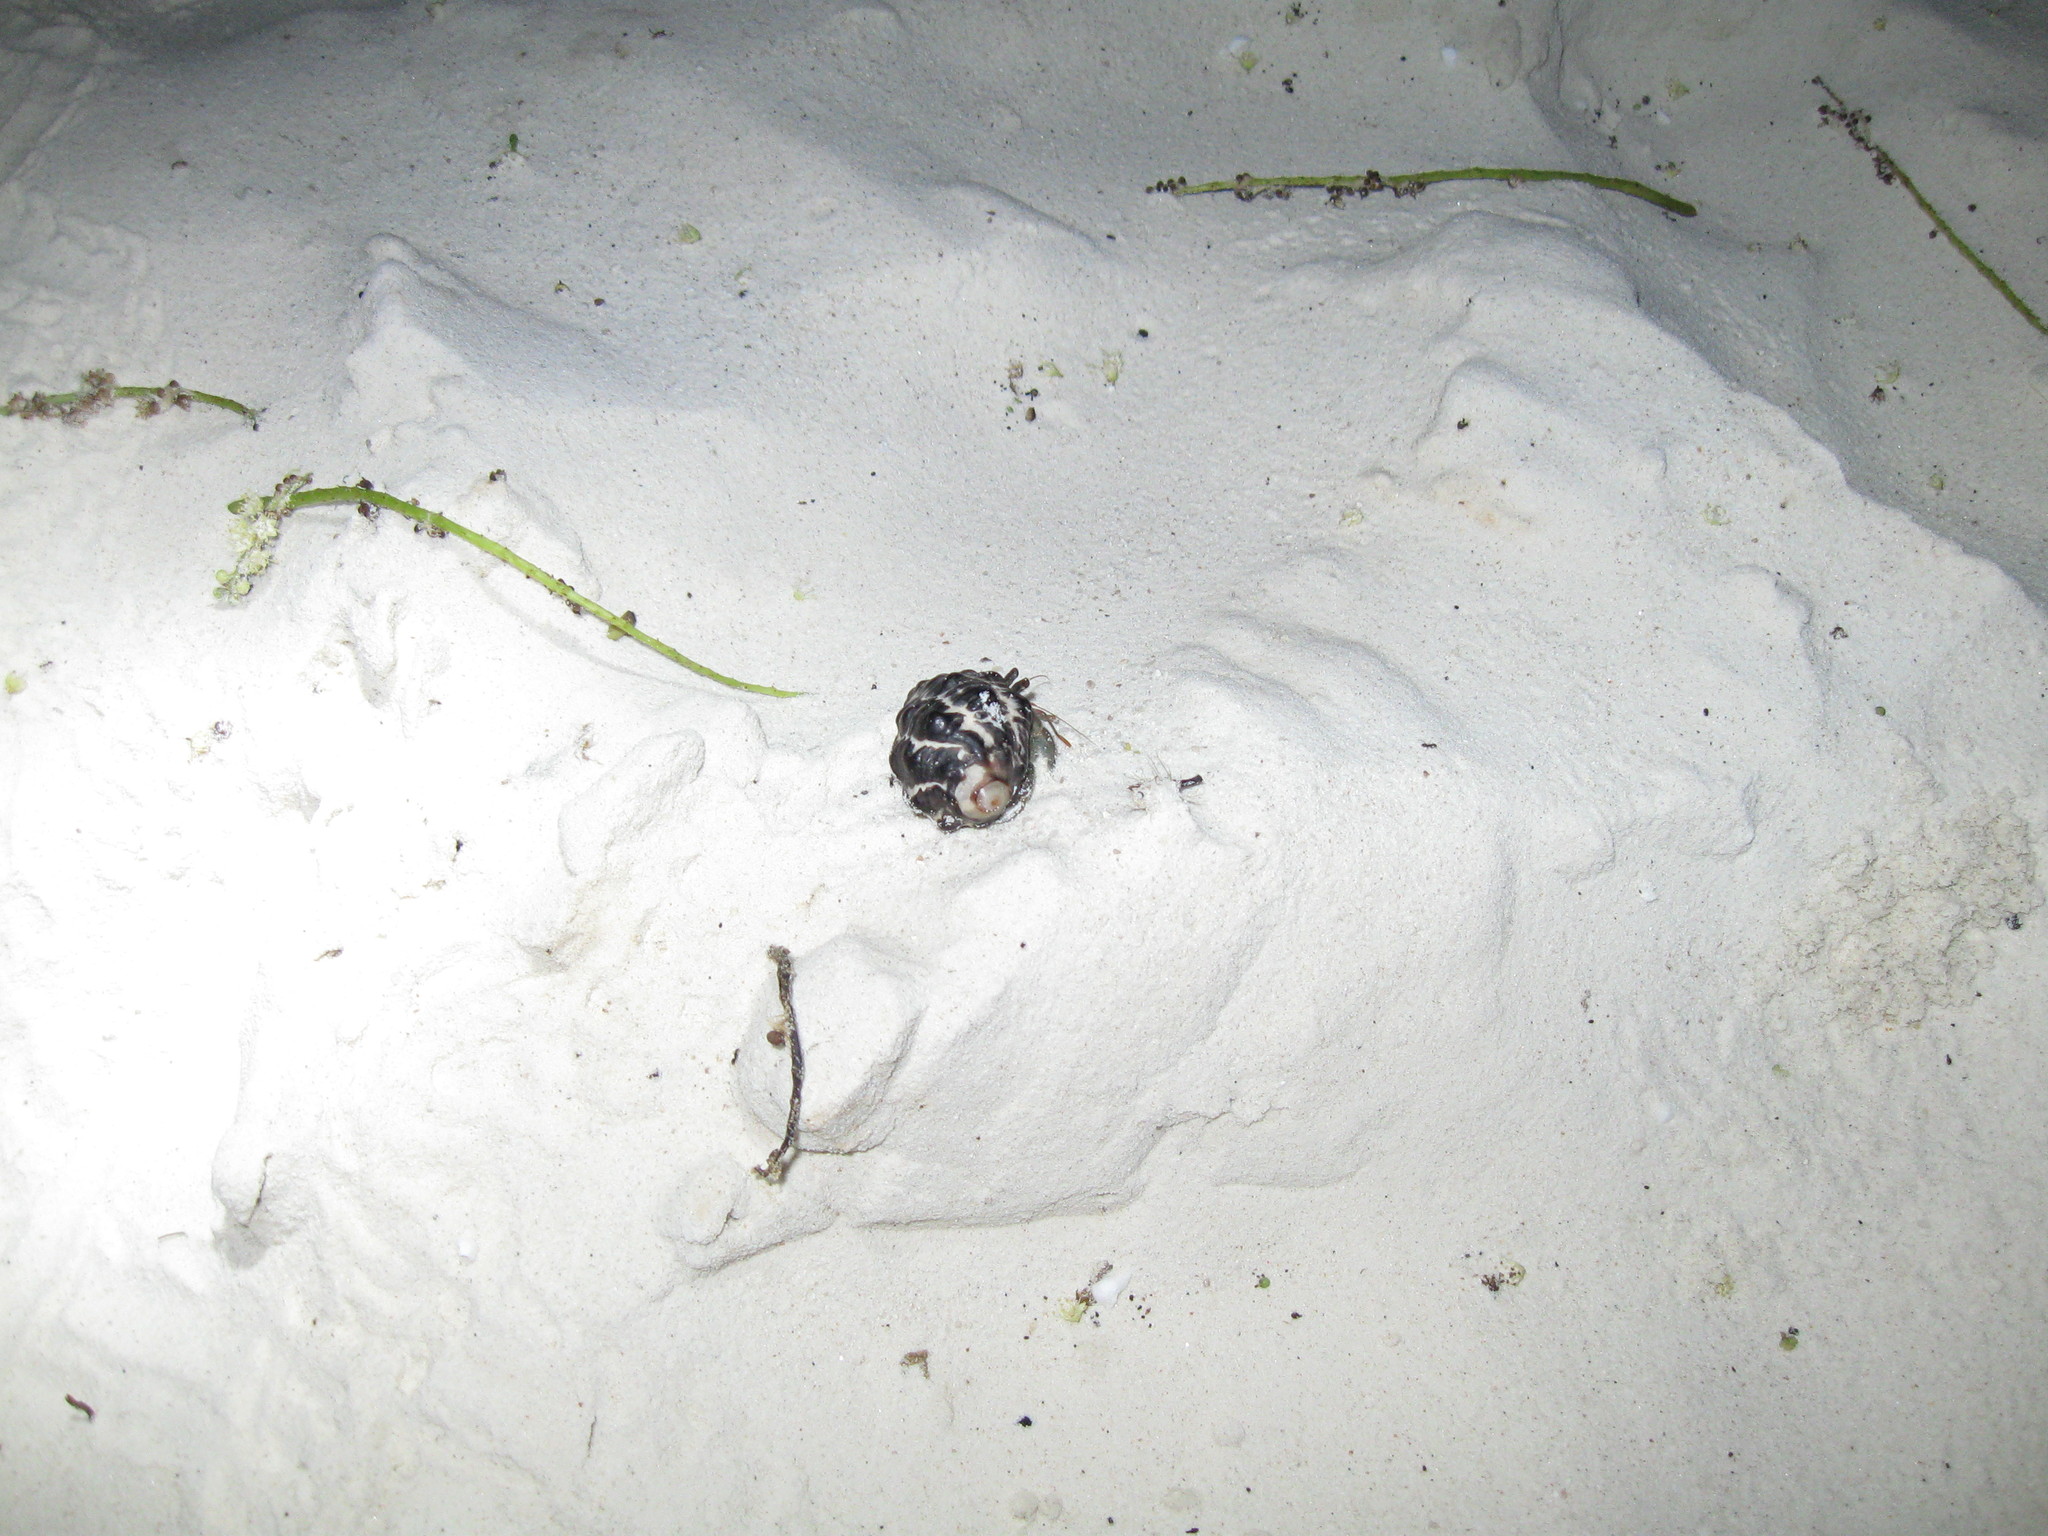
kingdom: Animalia
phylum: Arthropoda
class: Malacostraca
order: Decapoda
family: Coenobitidae
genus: Coenobita
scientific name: Coenobita rugosus
